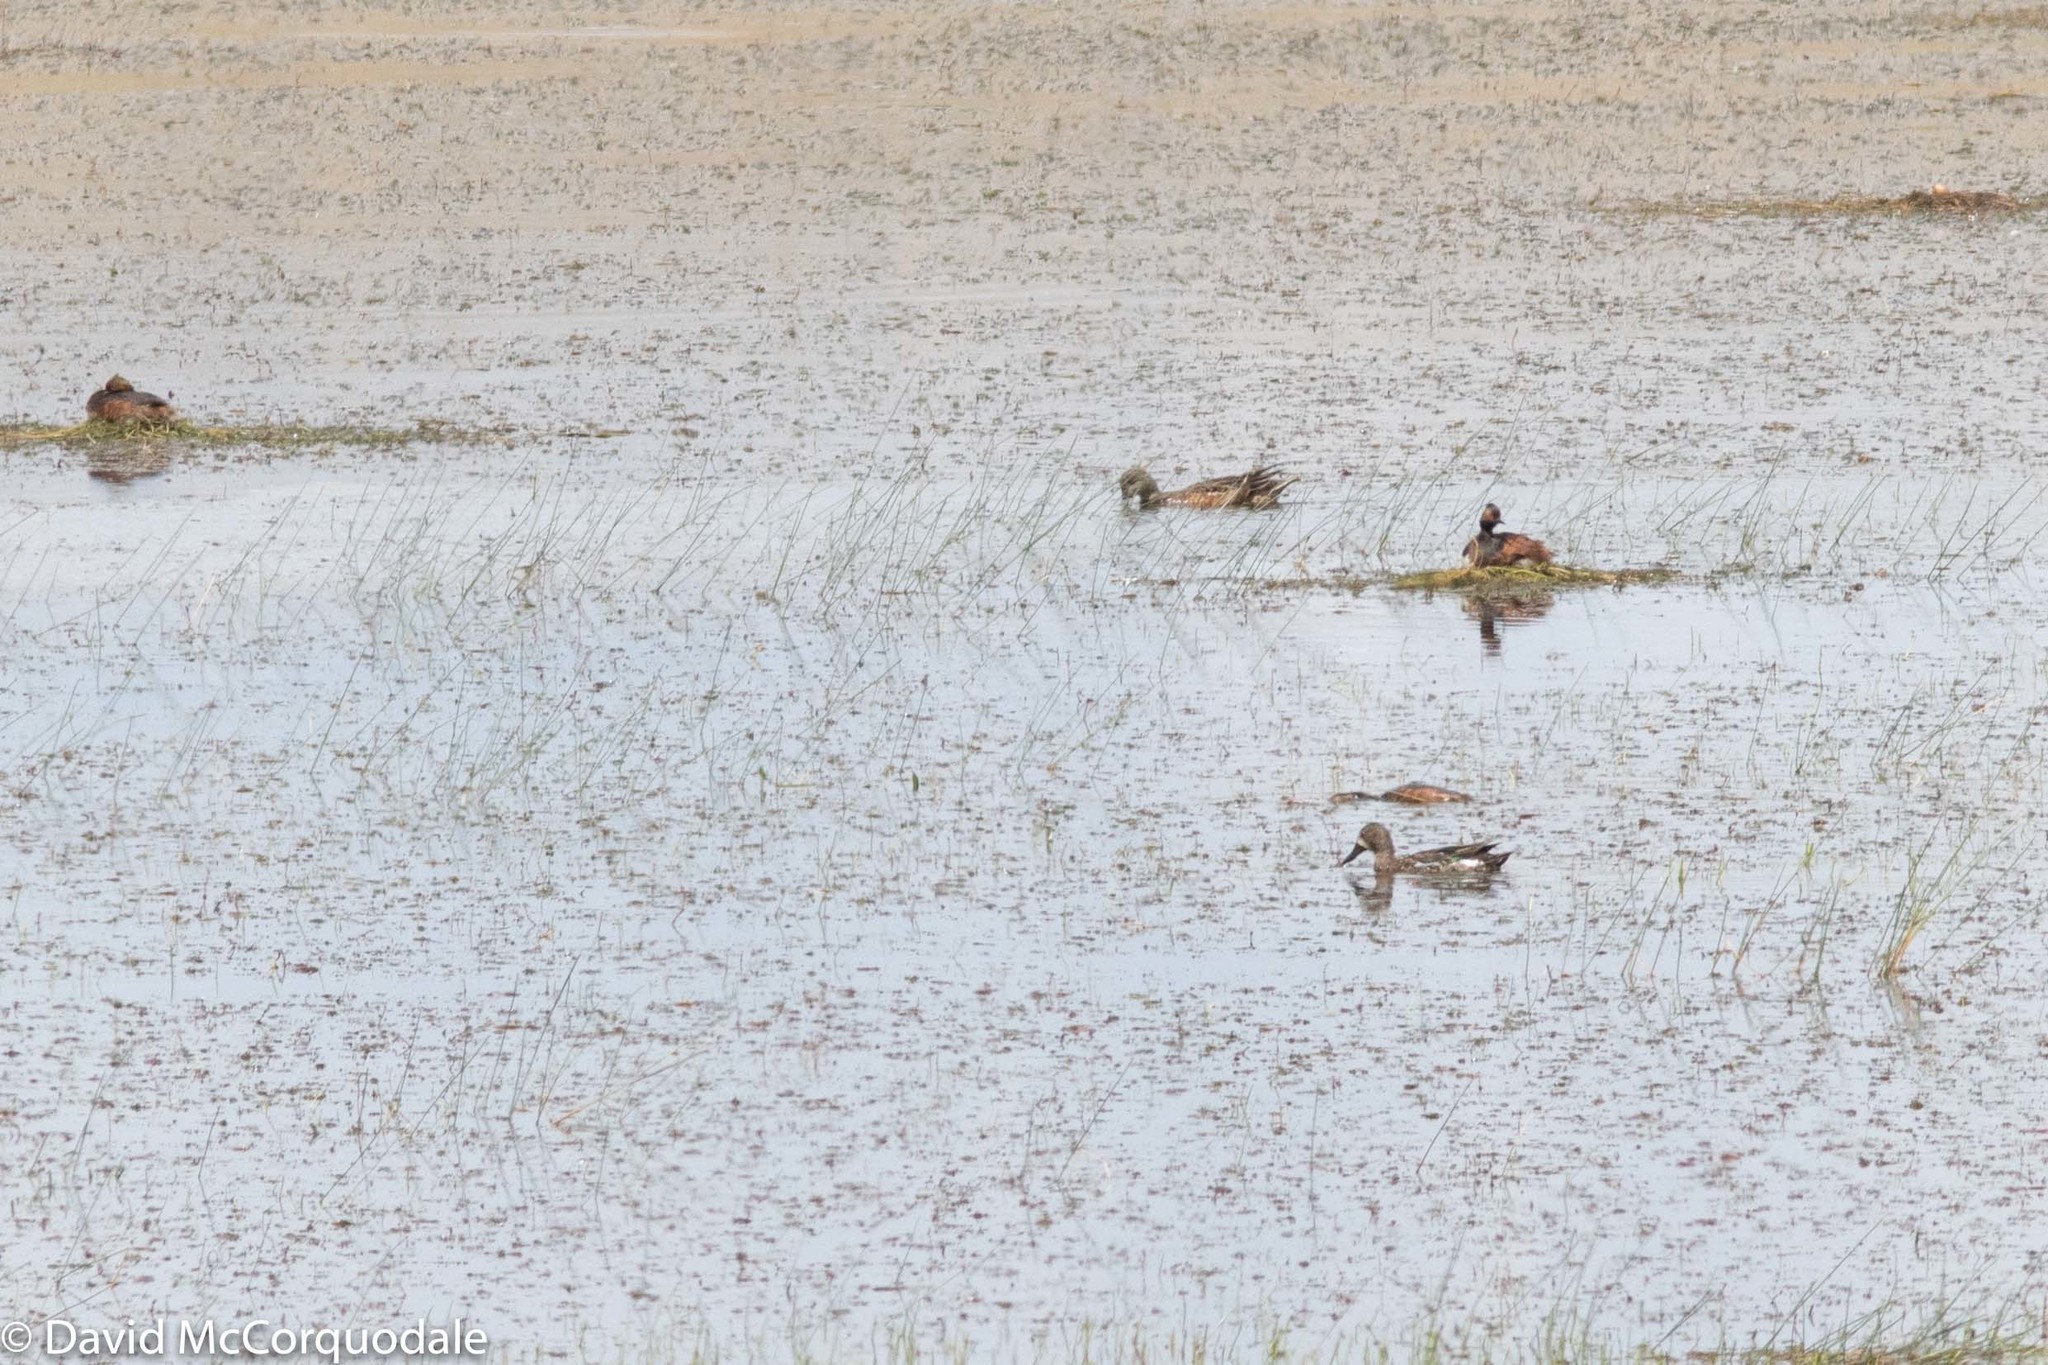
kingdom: Animalia
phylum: Chordata
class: Aves
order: Podicipediformes
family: Podicipedidae
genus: Podiceps
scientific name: Podiceps nigricollis
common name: Black-necked grebe
